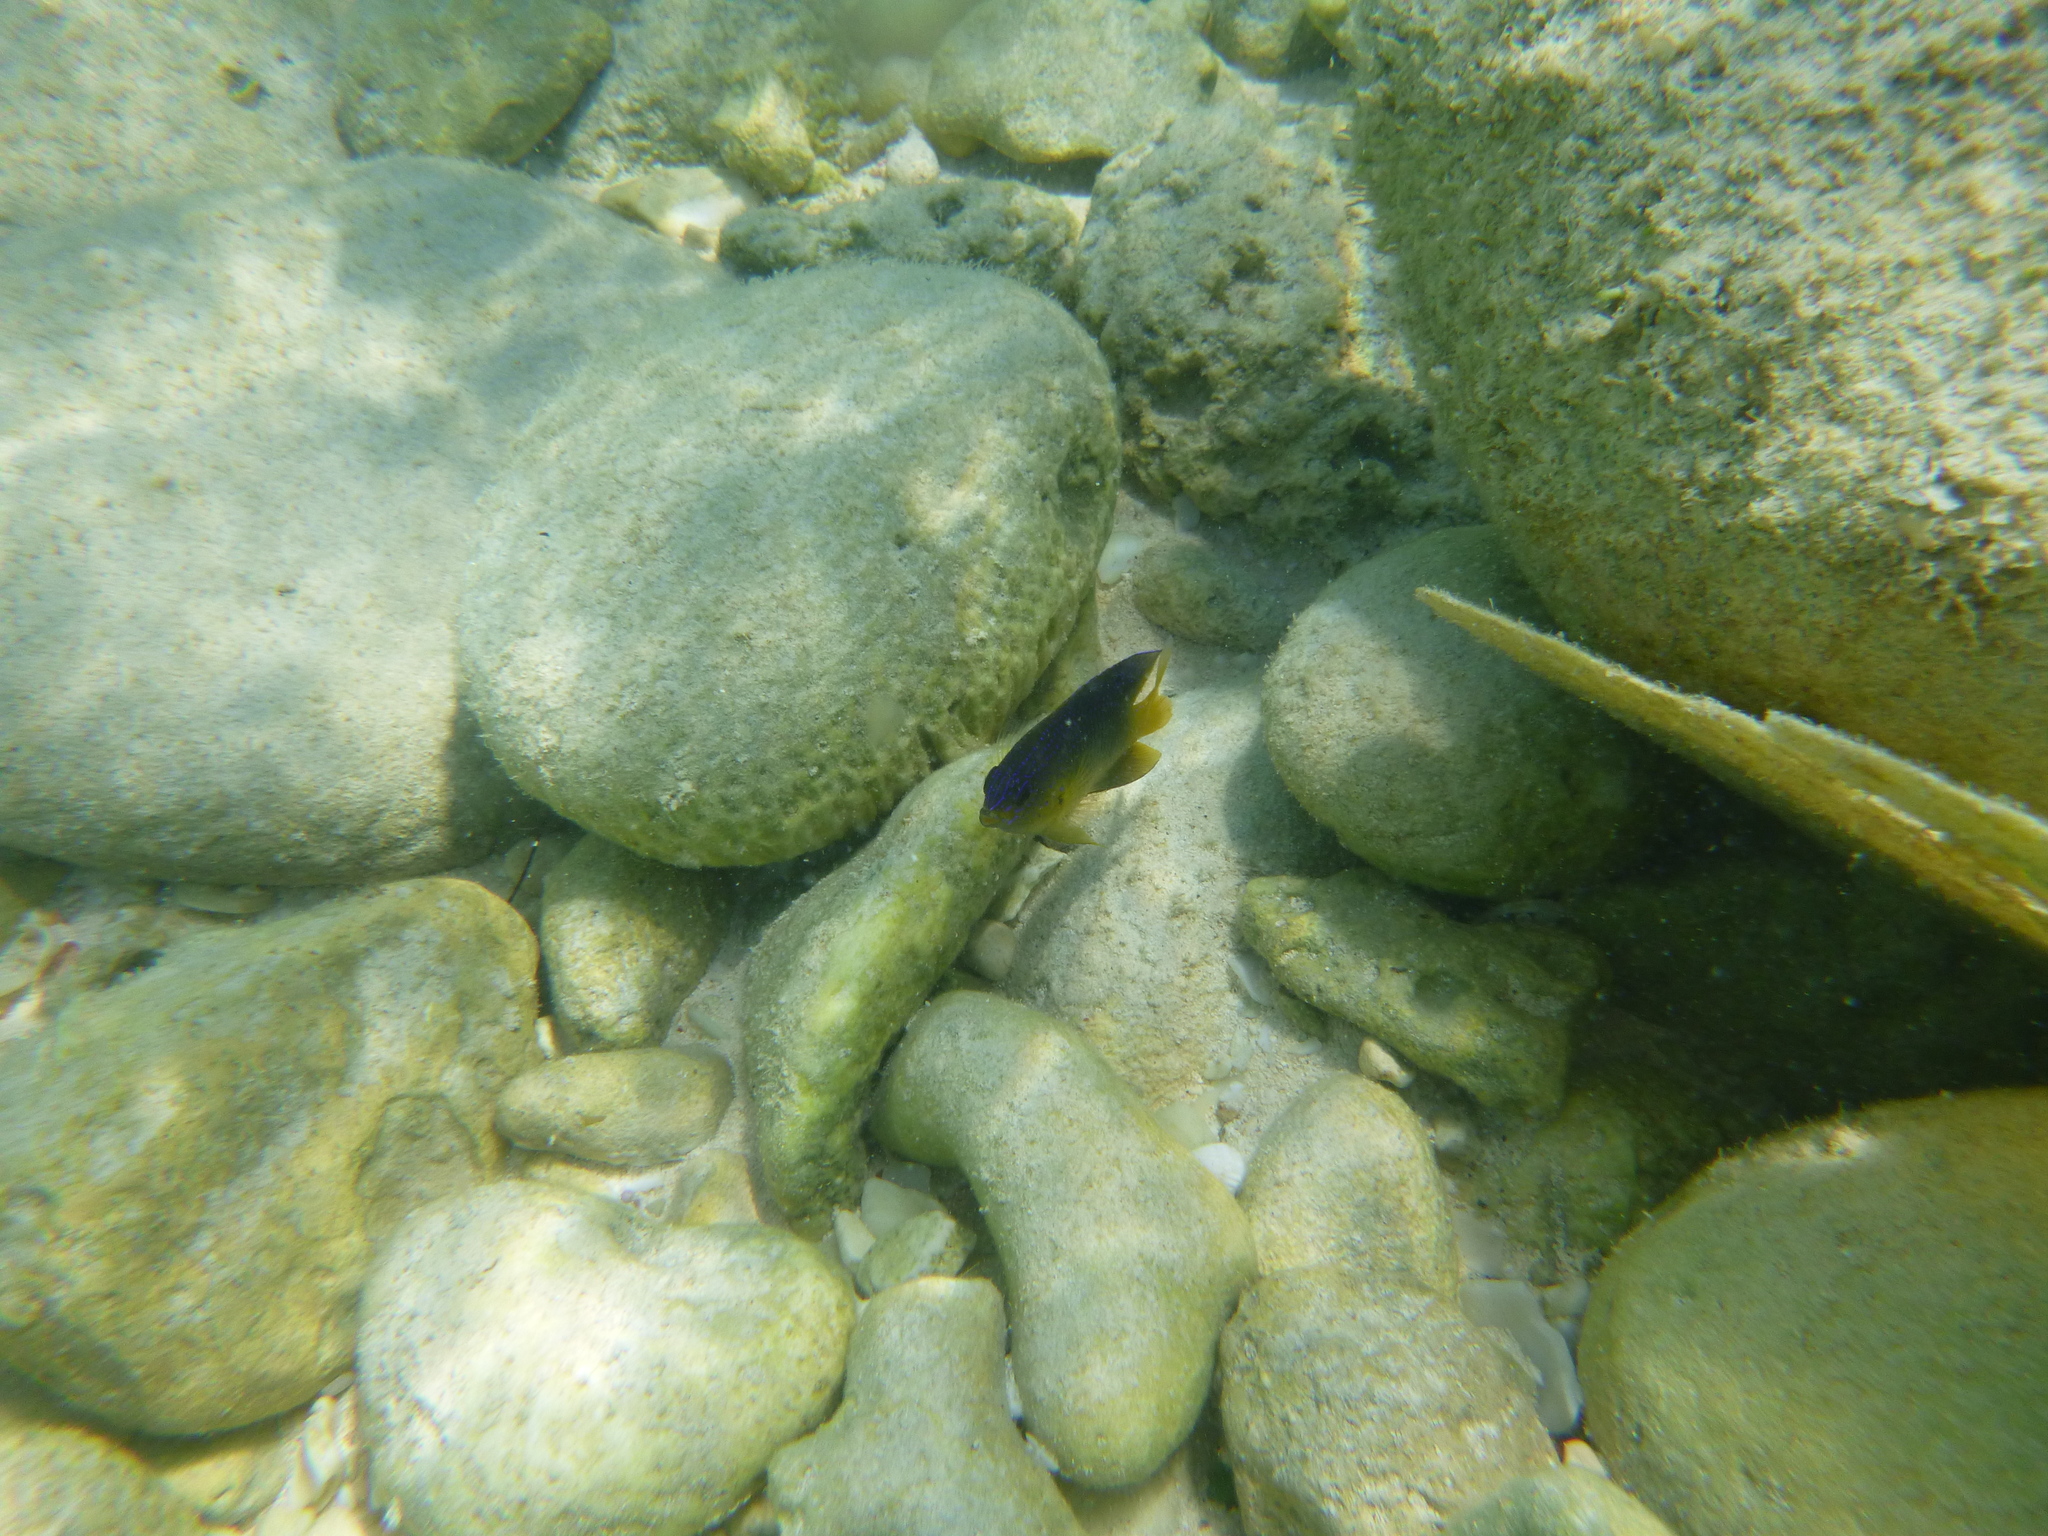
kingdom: Animalia
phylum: Chordata
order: Perciformes
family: Pomacentridae
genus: Stegastes
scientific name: Stegastes leucostictus
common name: Beaugregory
